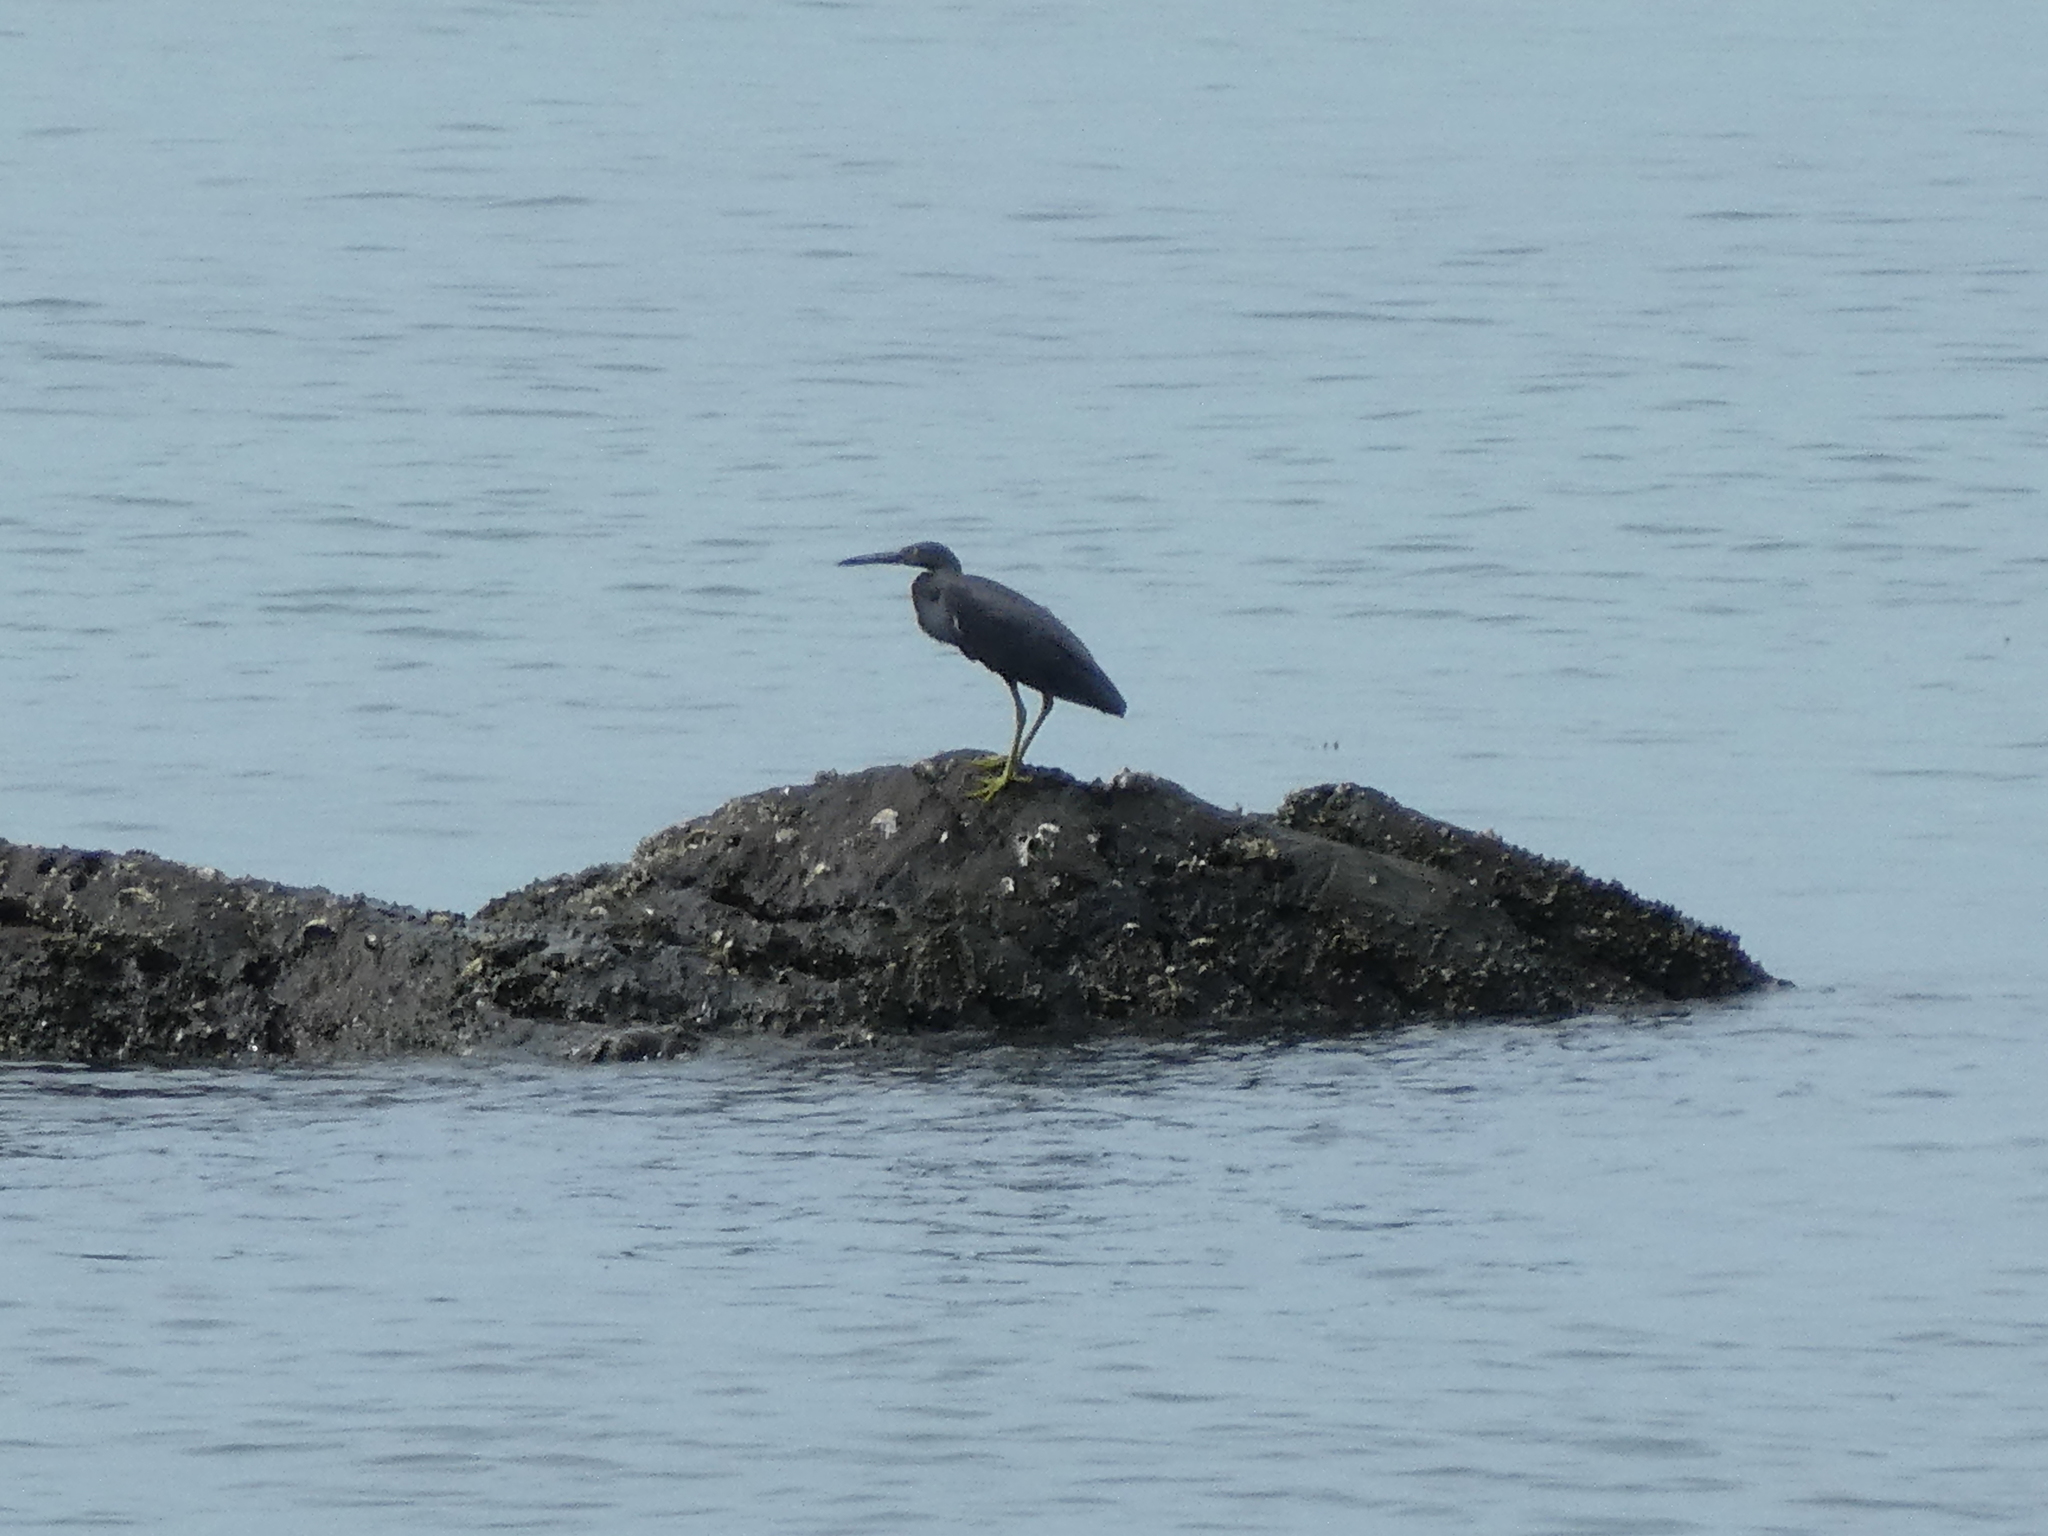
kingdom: Animalia
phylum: Chordata
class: Aves
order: Pelecaniformes
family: Ardeidae
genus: Egretta
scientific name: Egretta sacra
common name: Pacific reef heron
